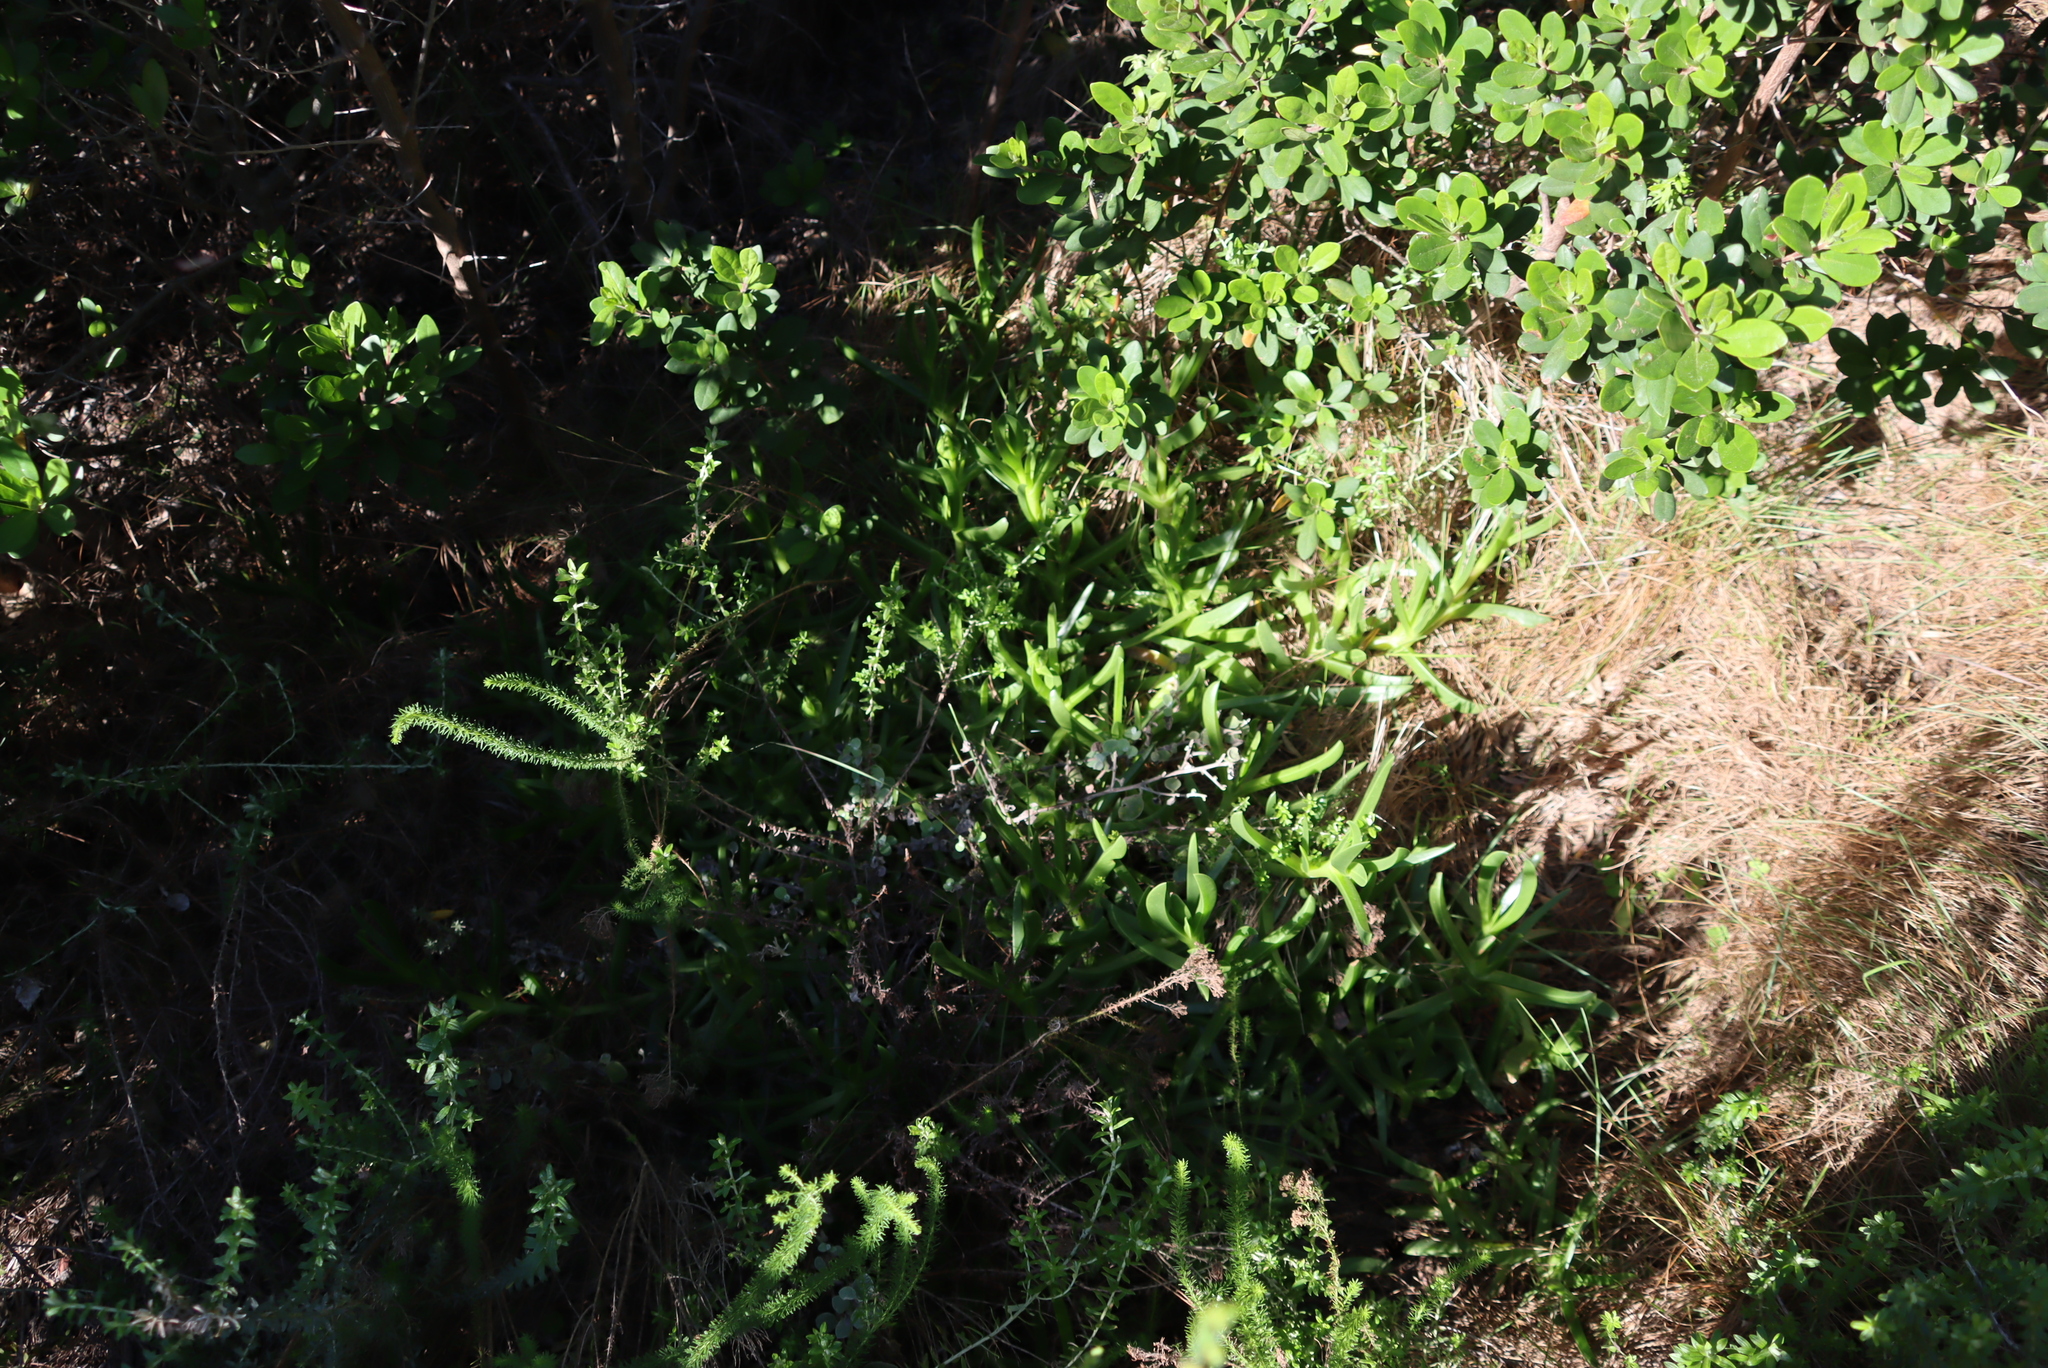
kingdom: Plantae
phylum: Tracheophyta
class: Magnoliopsida
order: Caryophyllales
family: Aizoaceae
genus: Carpobrotus
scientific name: Carpobrotus deliciosus
